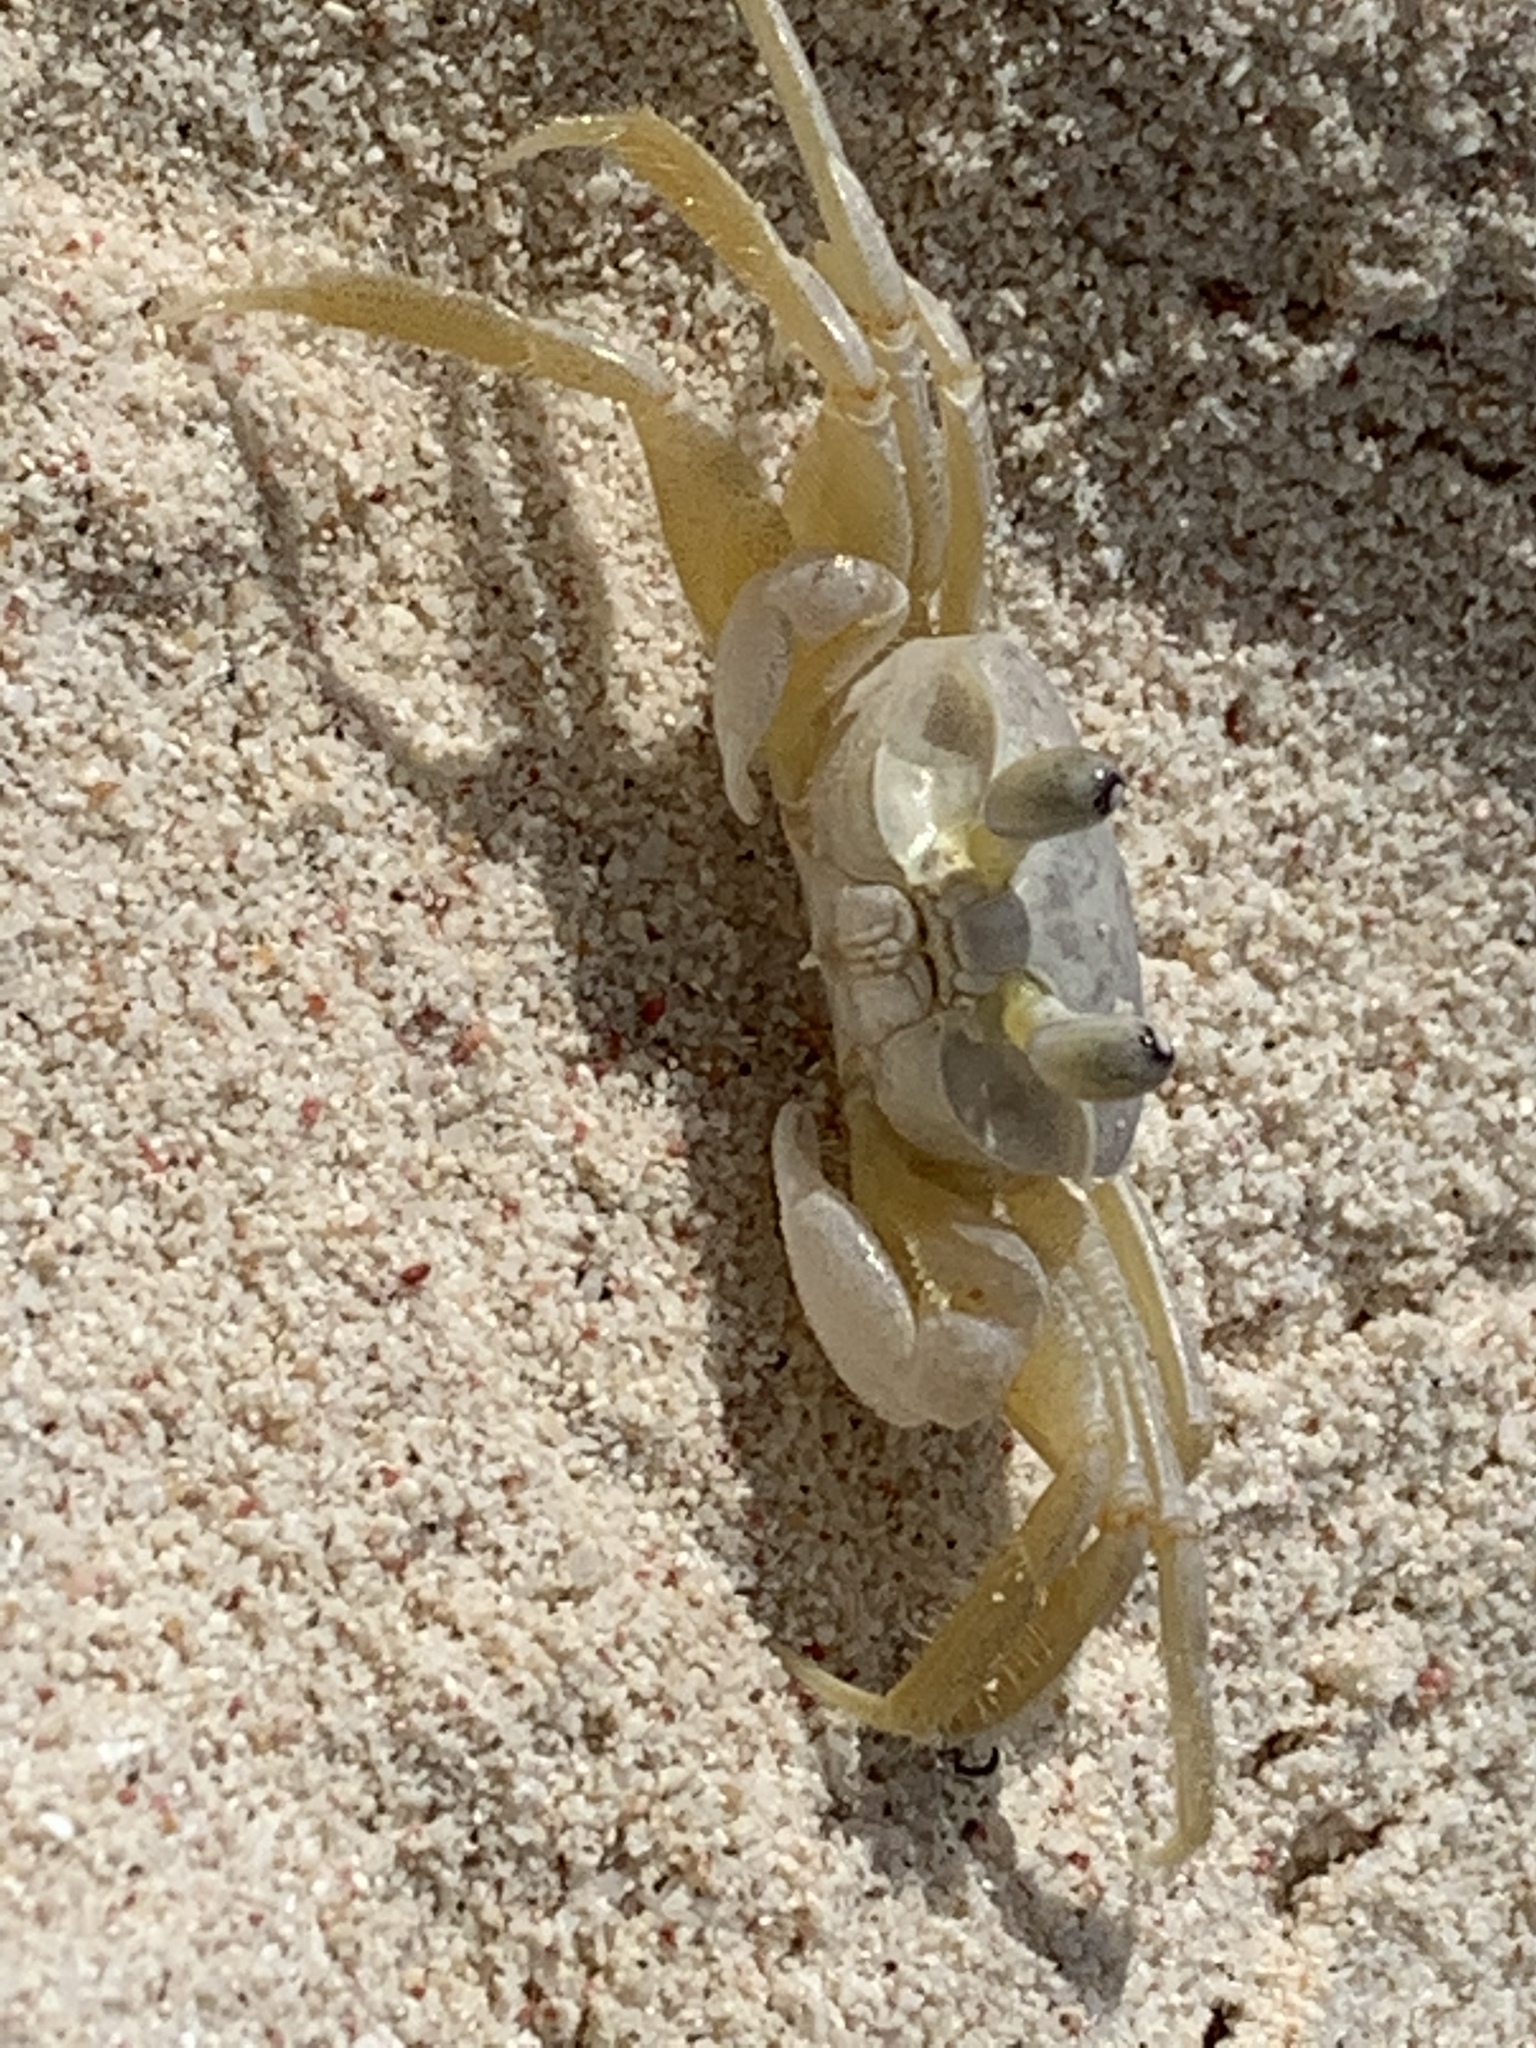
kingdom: Animalia
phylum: Arthropoda
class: Malacostraca
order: Decapoda
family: Ocypodidae
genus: Ocypode
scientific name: Ocypode quadrata
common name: Ghost crab
